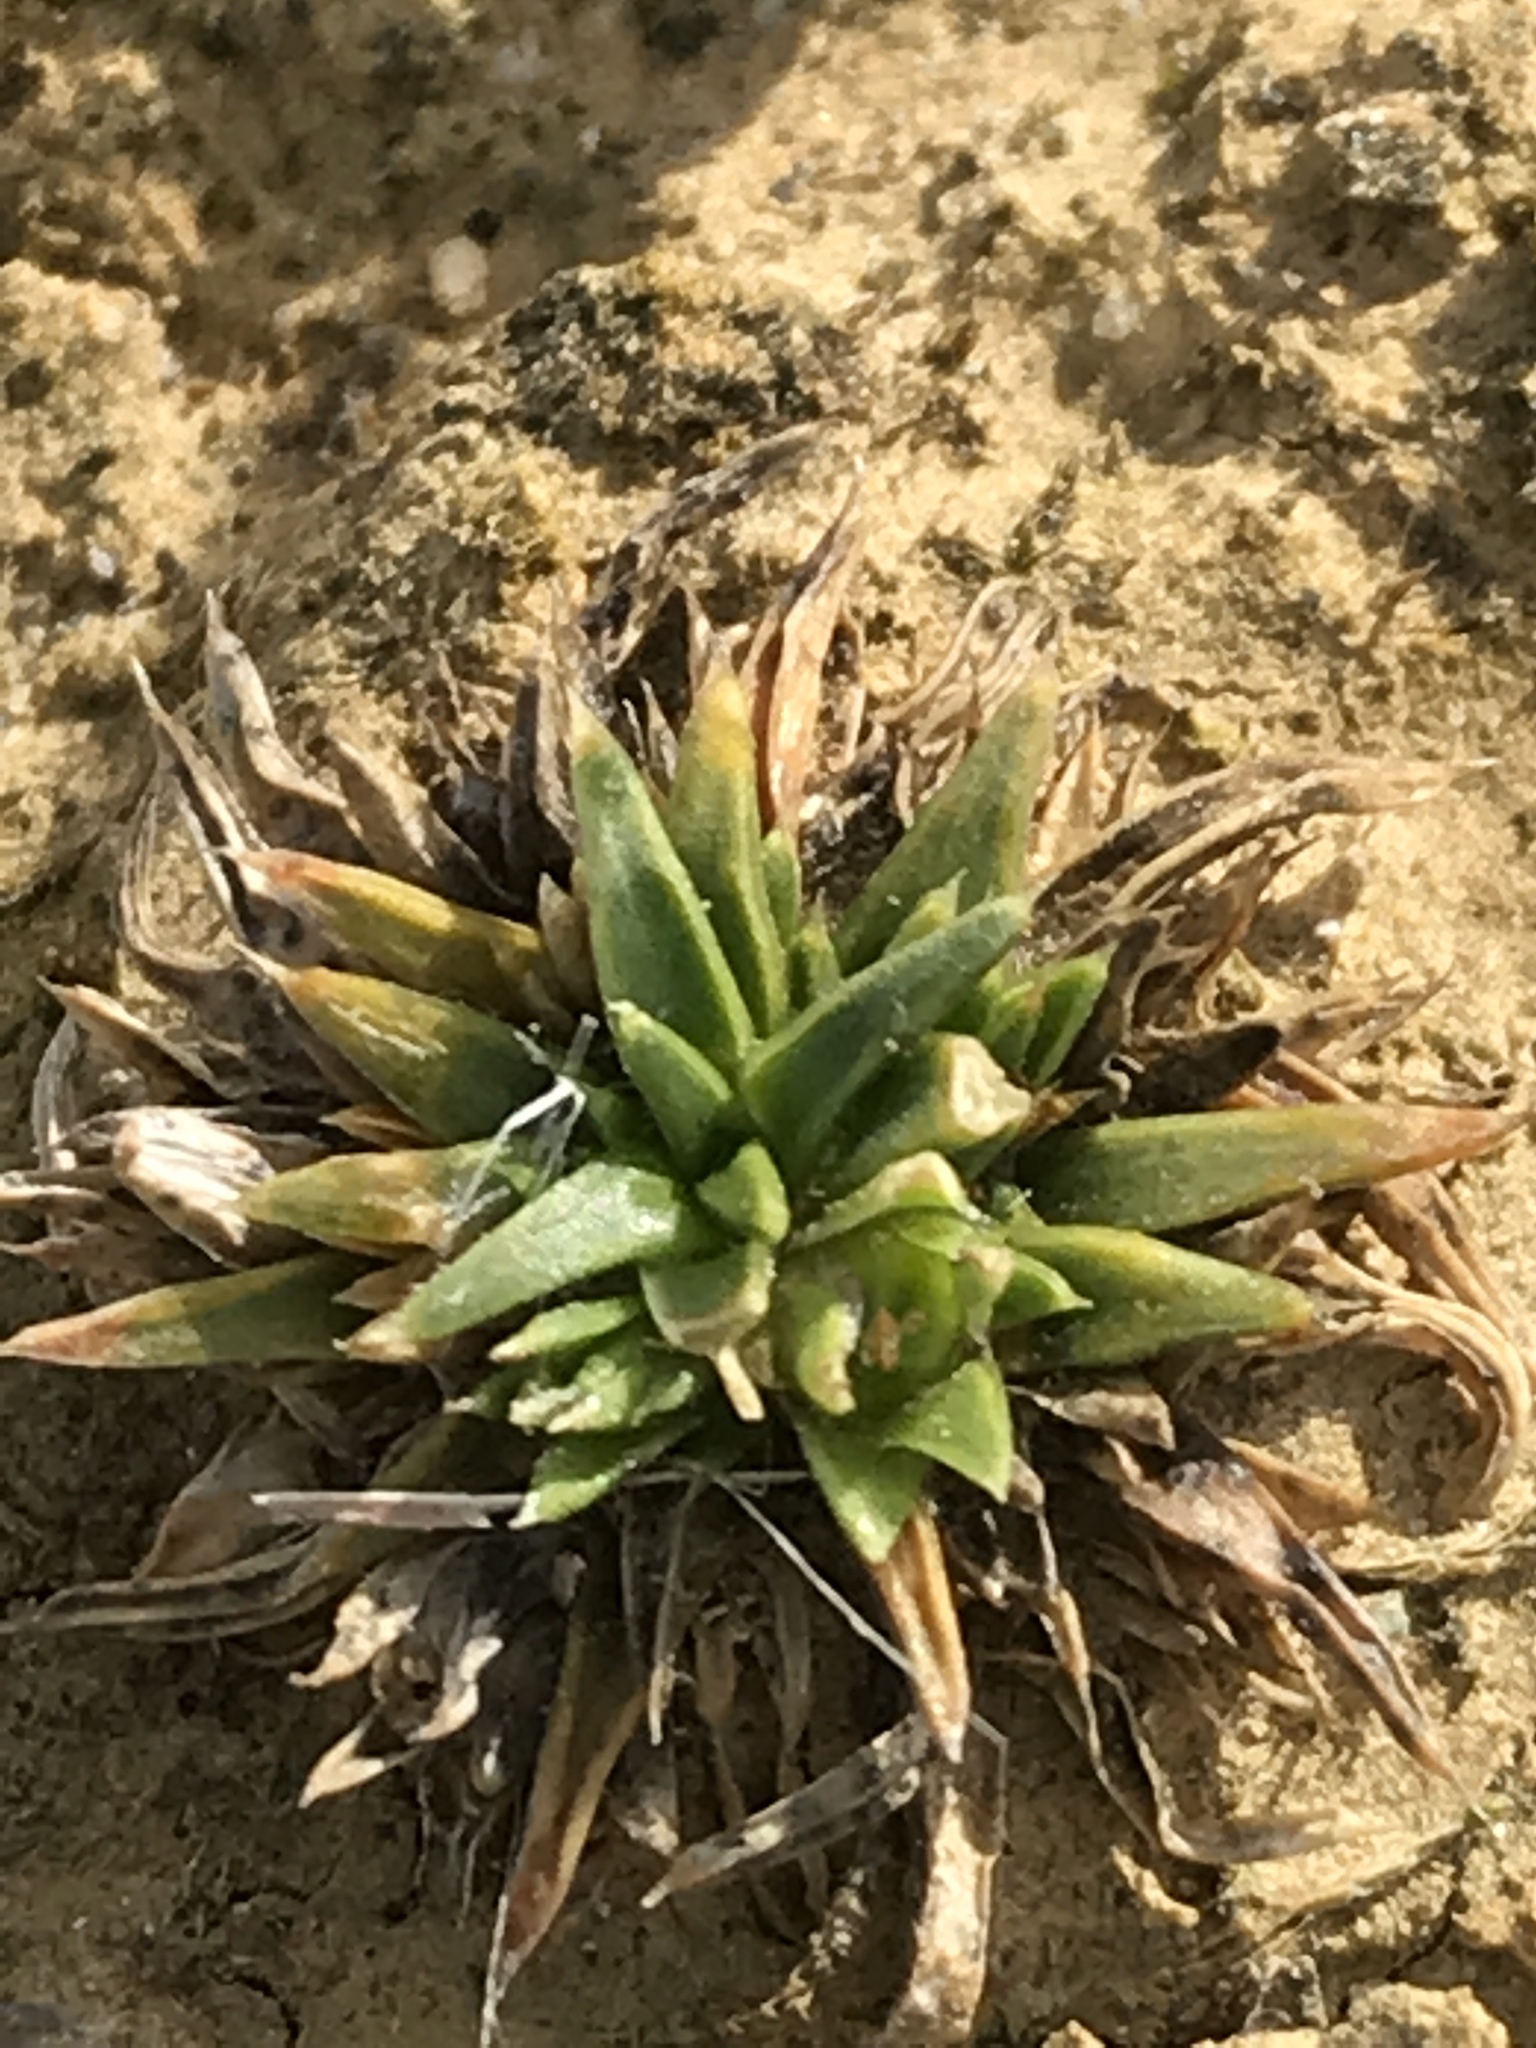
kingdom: Plantae
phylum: Tracheophyta
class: Magnoliopsida
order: Caryophyllales
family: Caryophyllaceae
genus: Colobanthus
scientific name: Colobanthus muelleri
